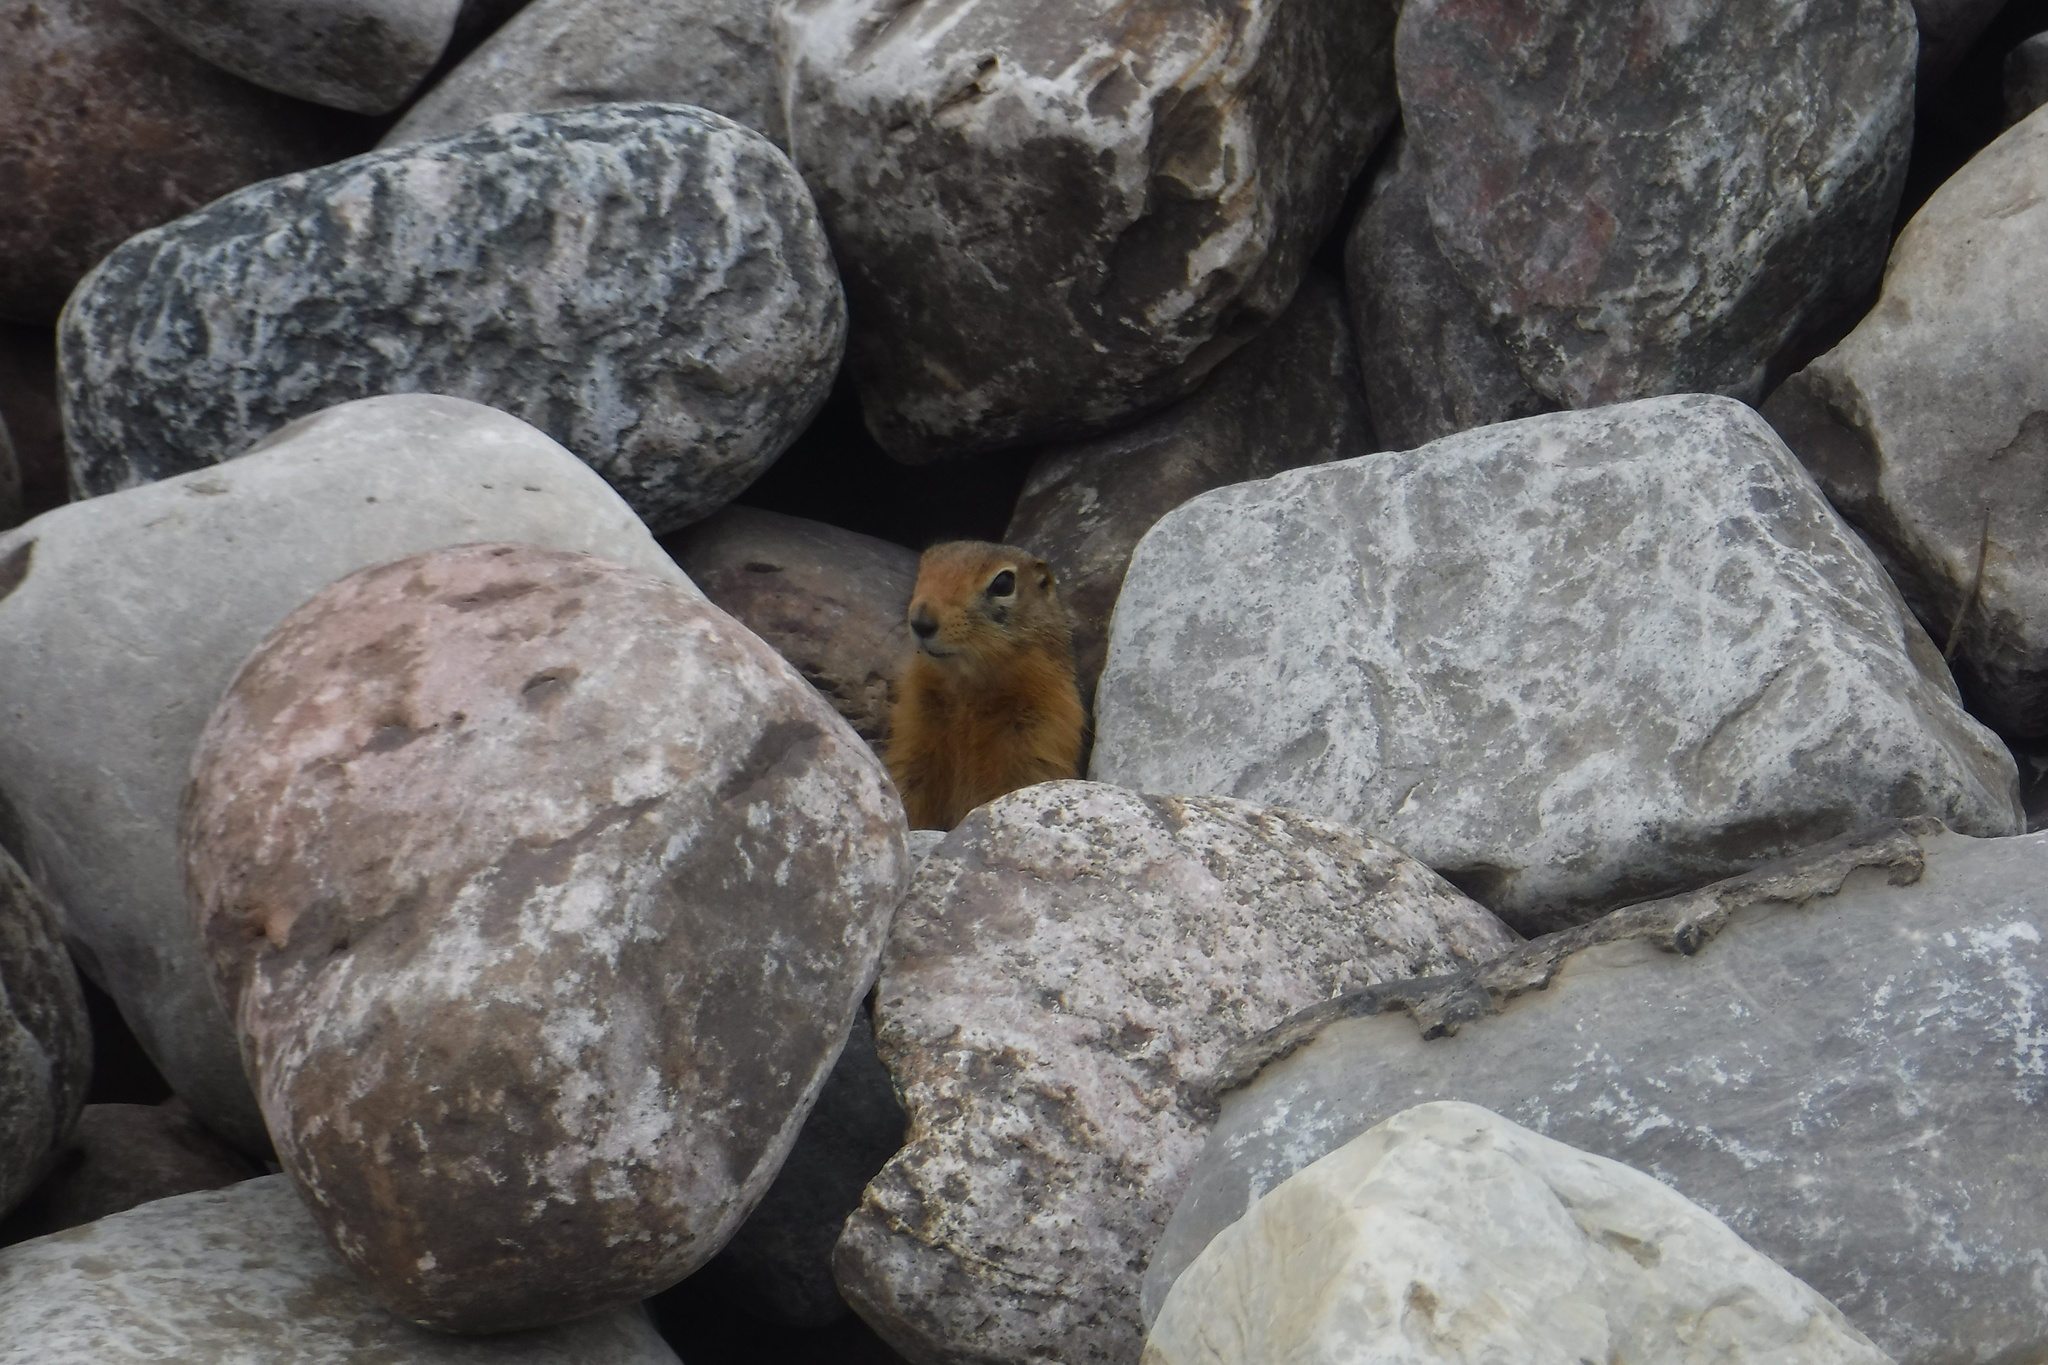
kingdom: Animalia
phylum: Chordata
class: Mammalia
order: Rodentia
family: Sciuridae
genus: Urocitellus
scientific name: Urocitellus parryii
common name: Arctic ground squirrel
